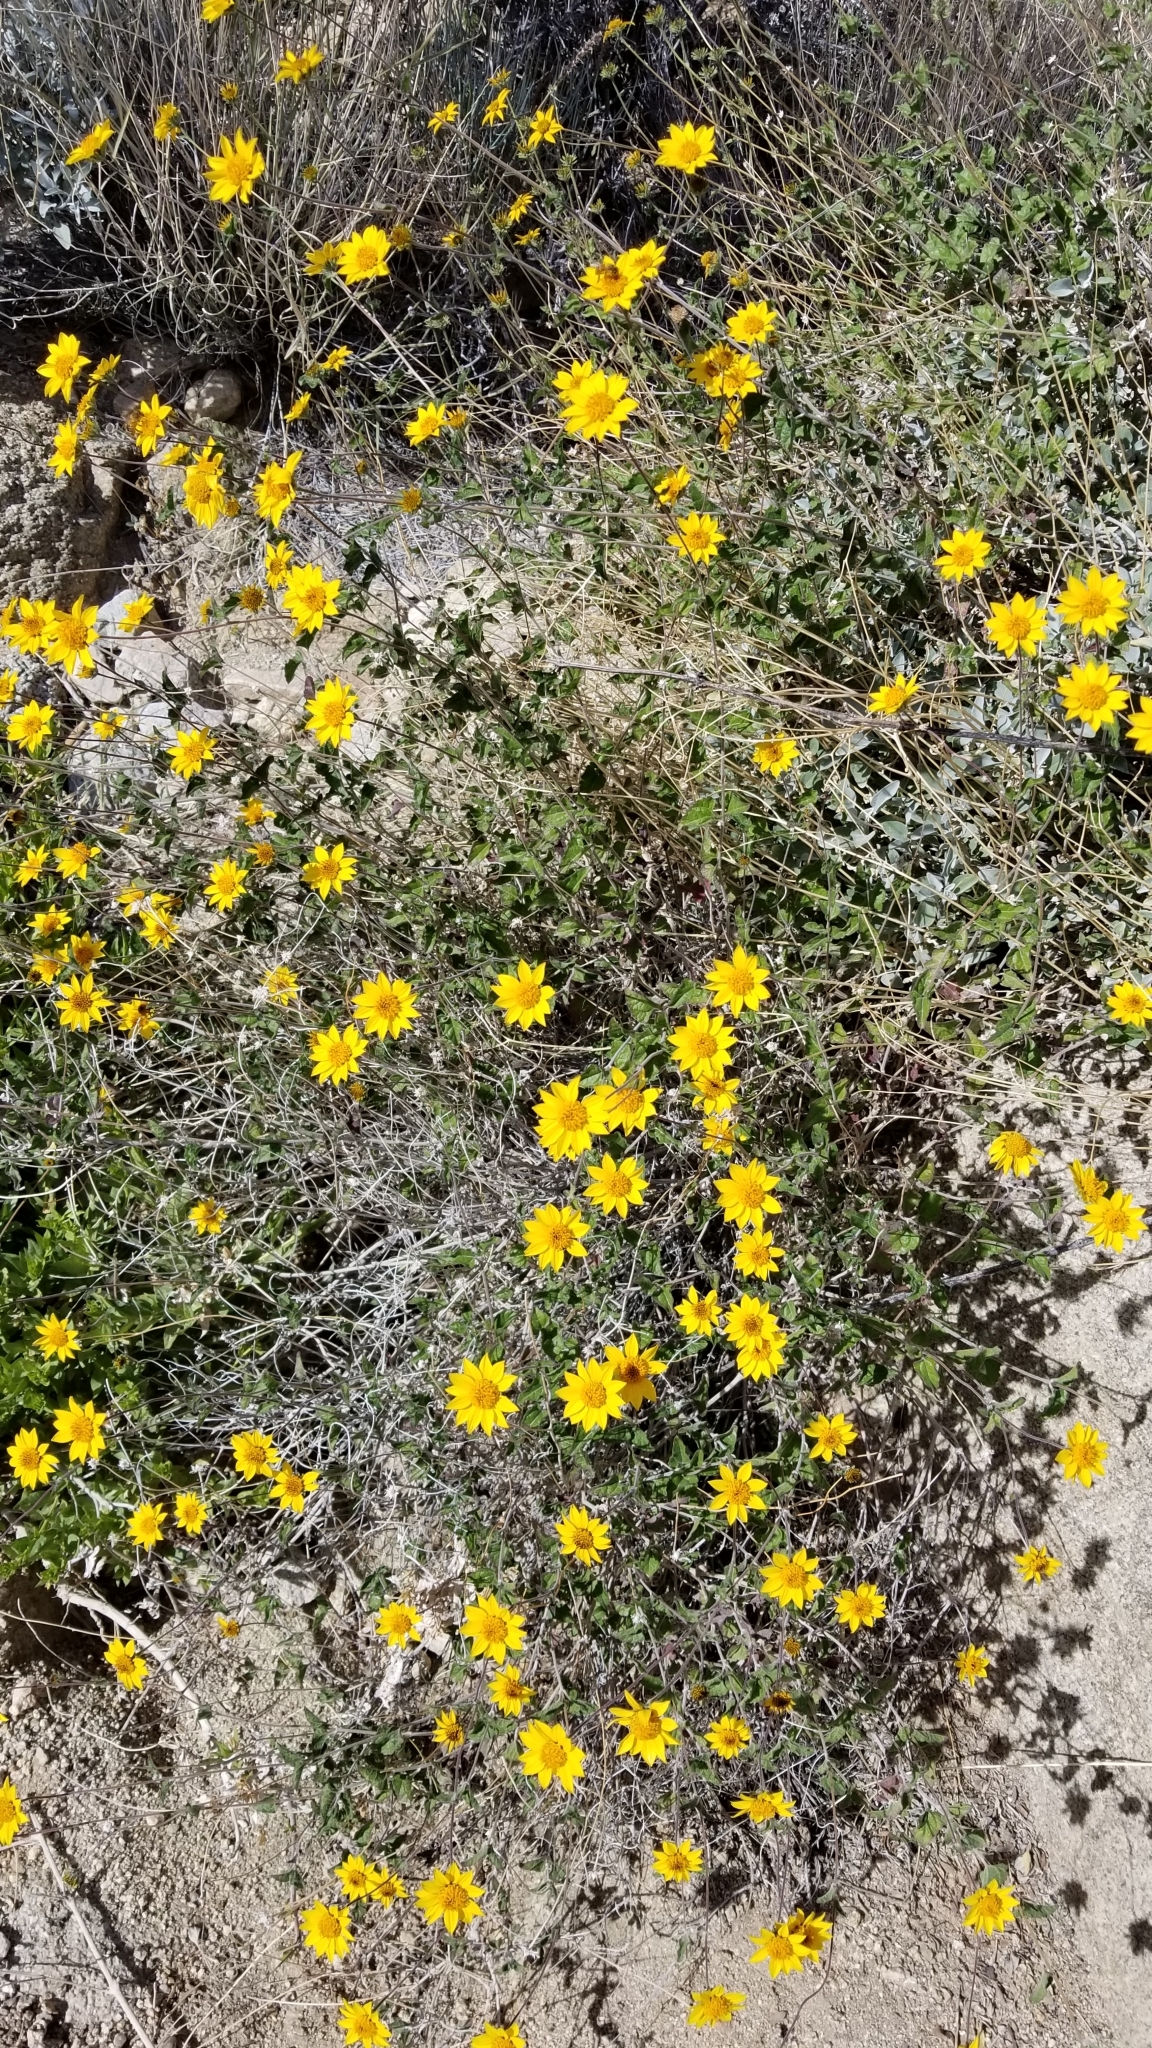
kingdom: Plantae
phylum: Tracheophyta
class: Magnoliopsida
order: Asterales
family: Asteraceae
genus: Bahiopsis
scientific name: Bahiopsis parishii
